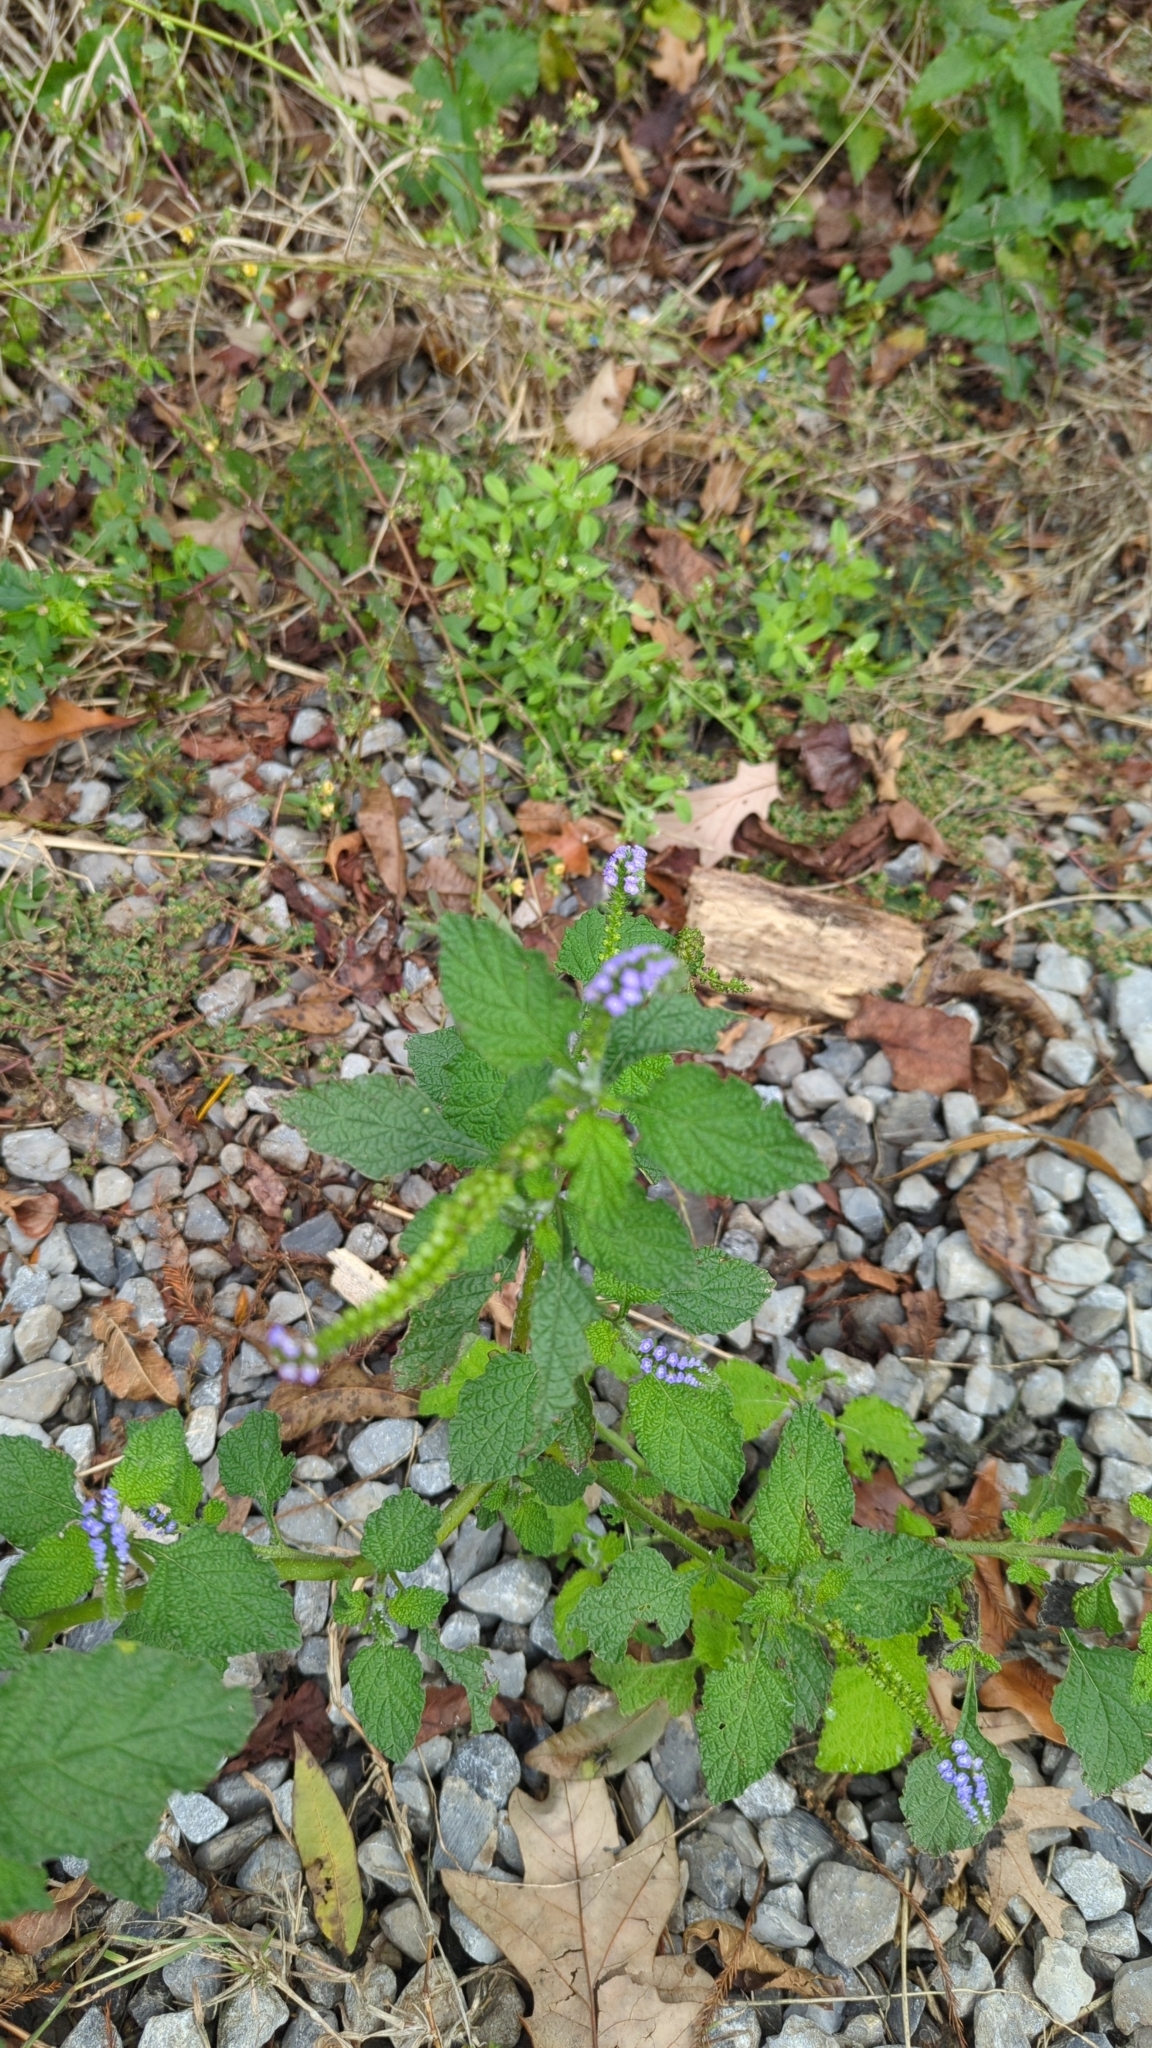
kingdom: Plantae
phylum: Tracheophyta
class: Magnoliopsida
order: Boraginales
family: Heliotropiaceae
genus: Heliotropium
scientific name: Heliotropium indicum
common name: Indian heliotrope
